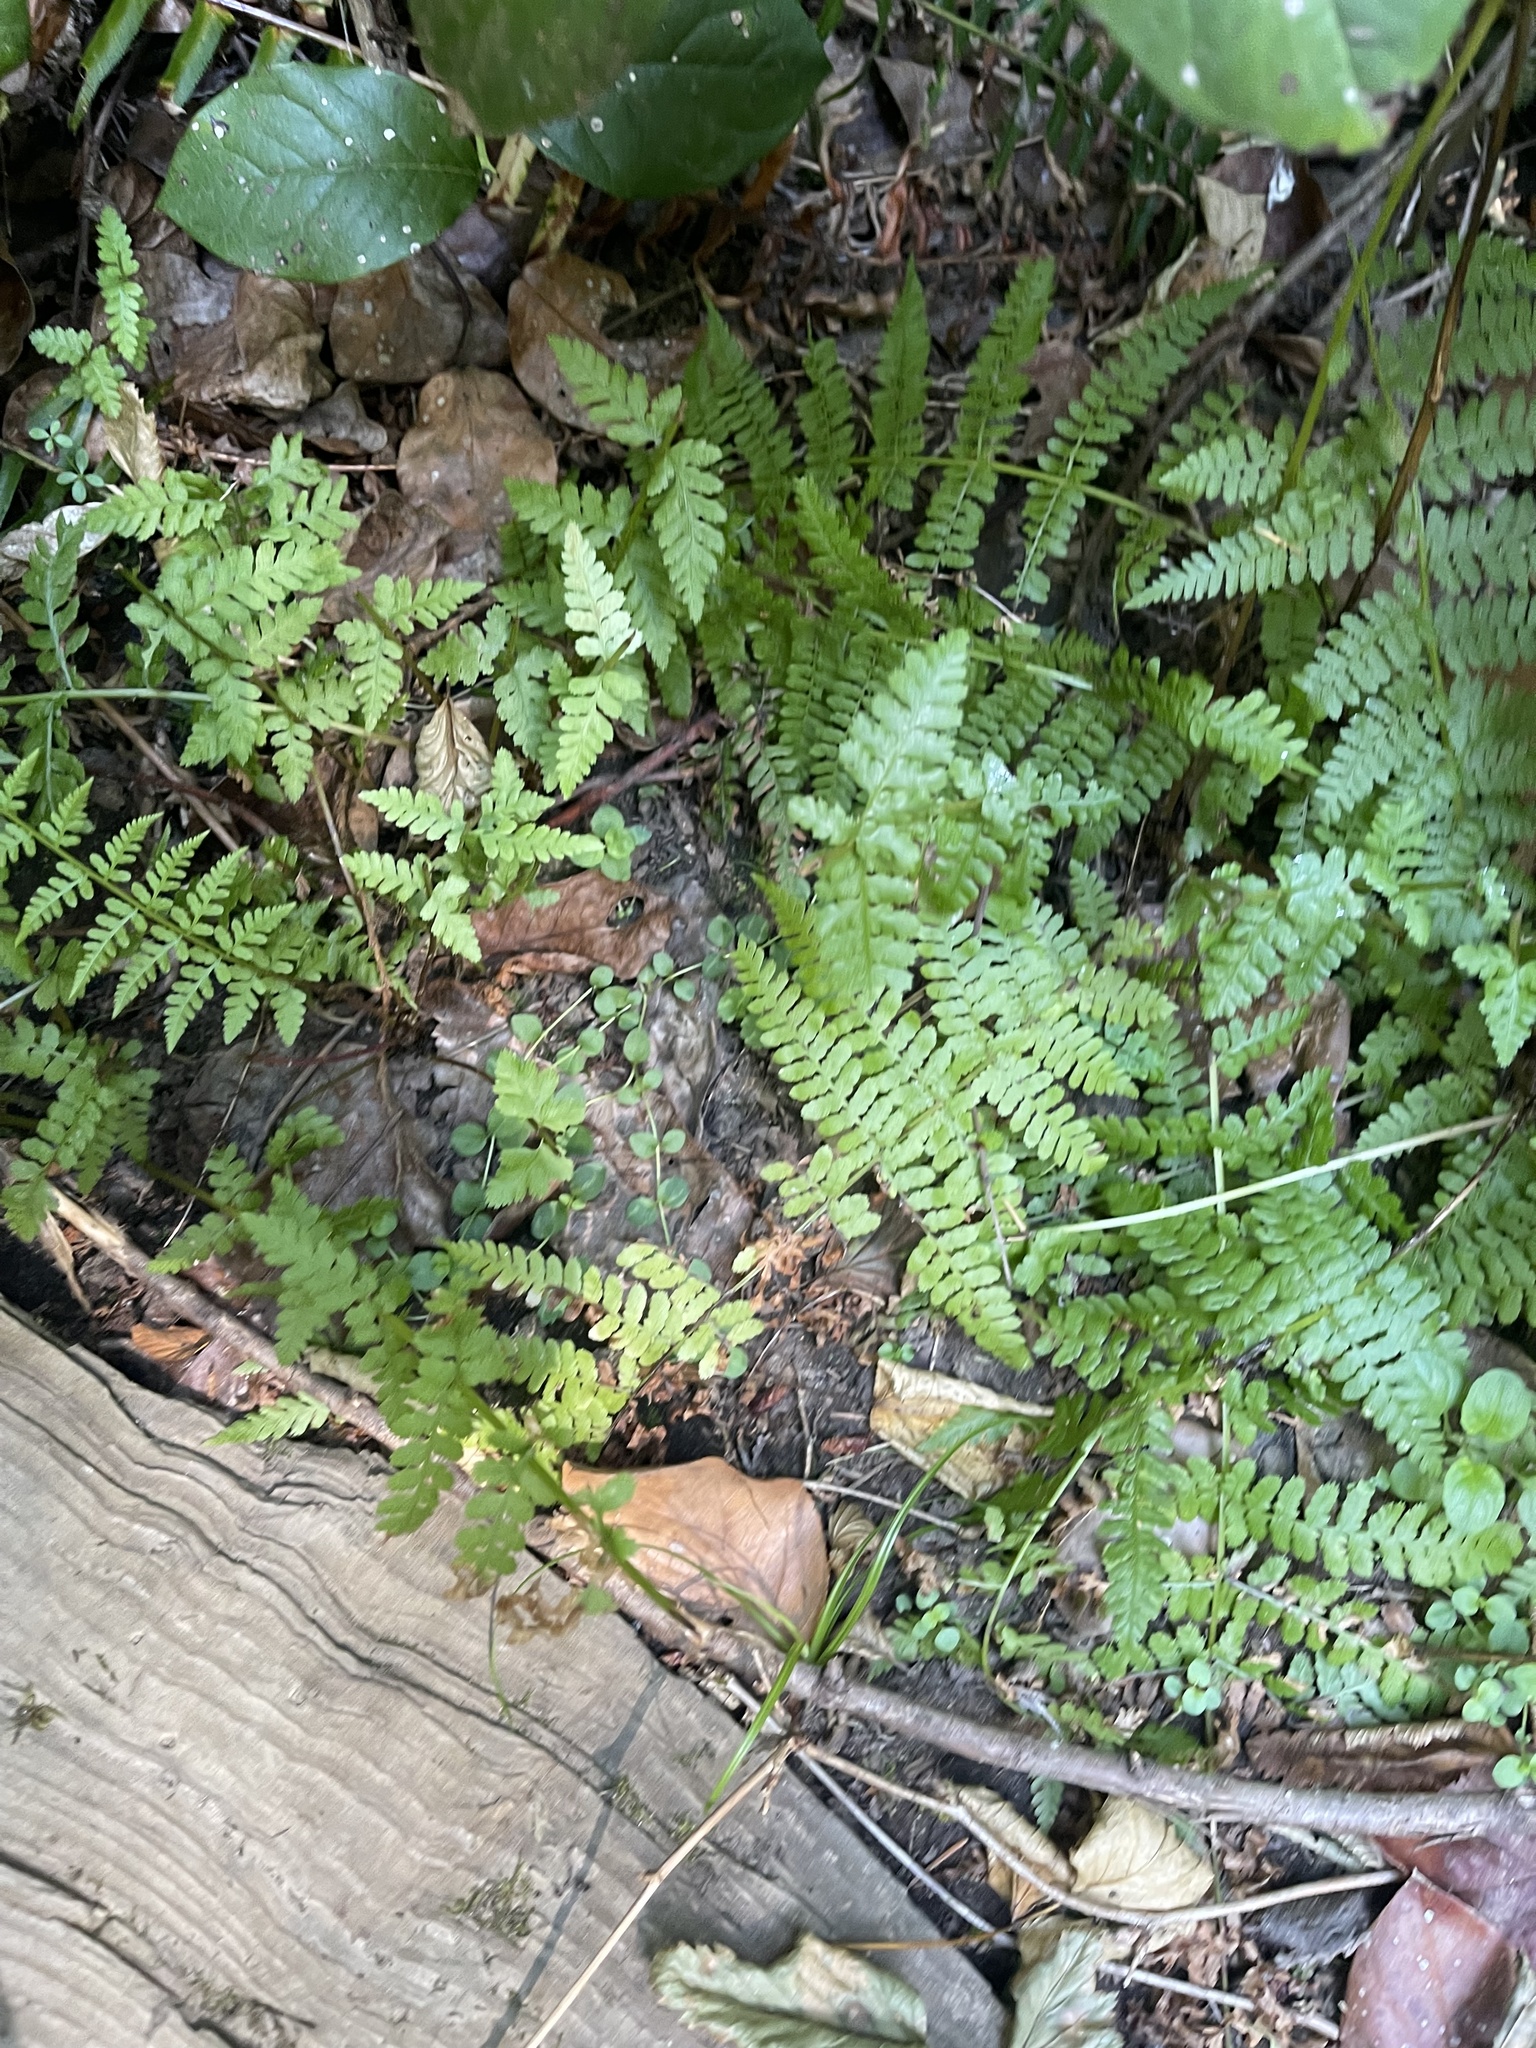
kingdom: Plantae
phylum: Tracheophyta
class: Polypodiopsida
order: Polypodiales
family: Athyriaceae
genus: Athyrium
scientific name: Athyrium filix-femina
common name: Lady fern
